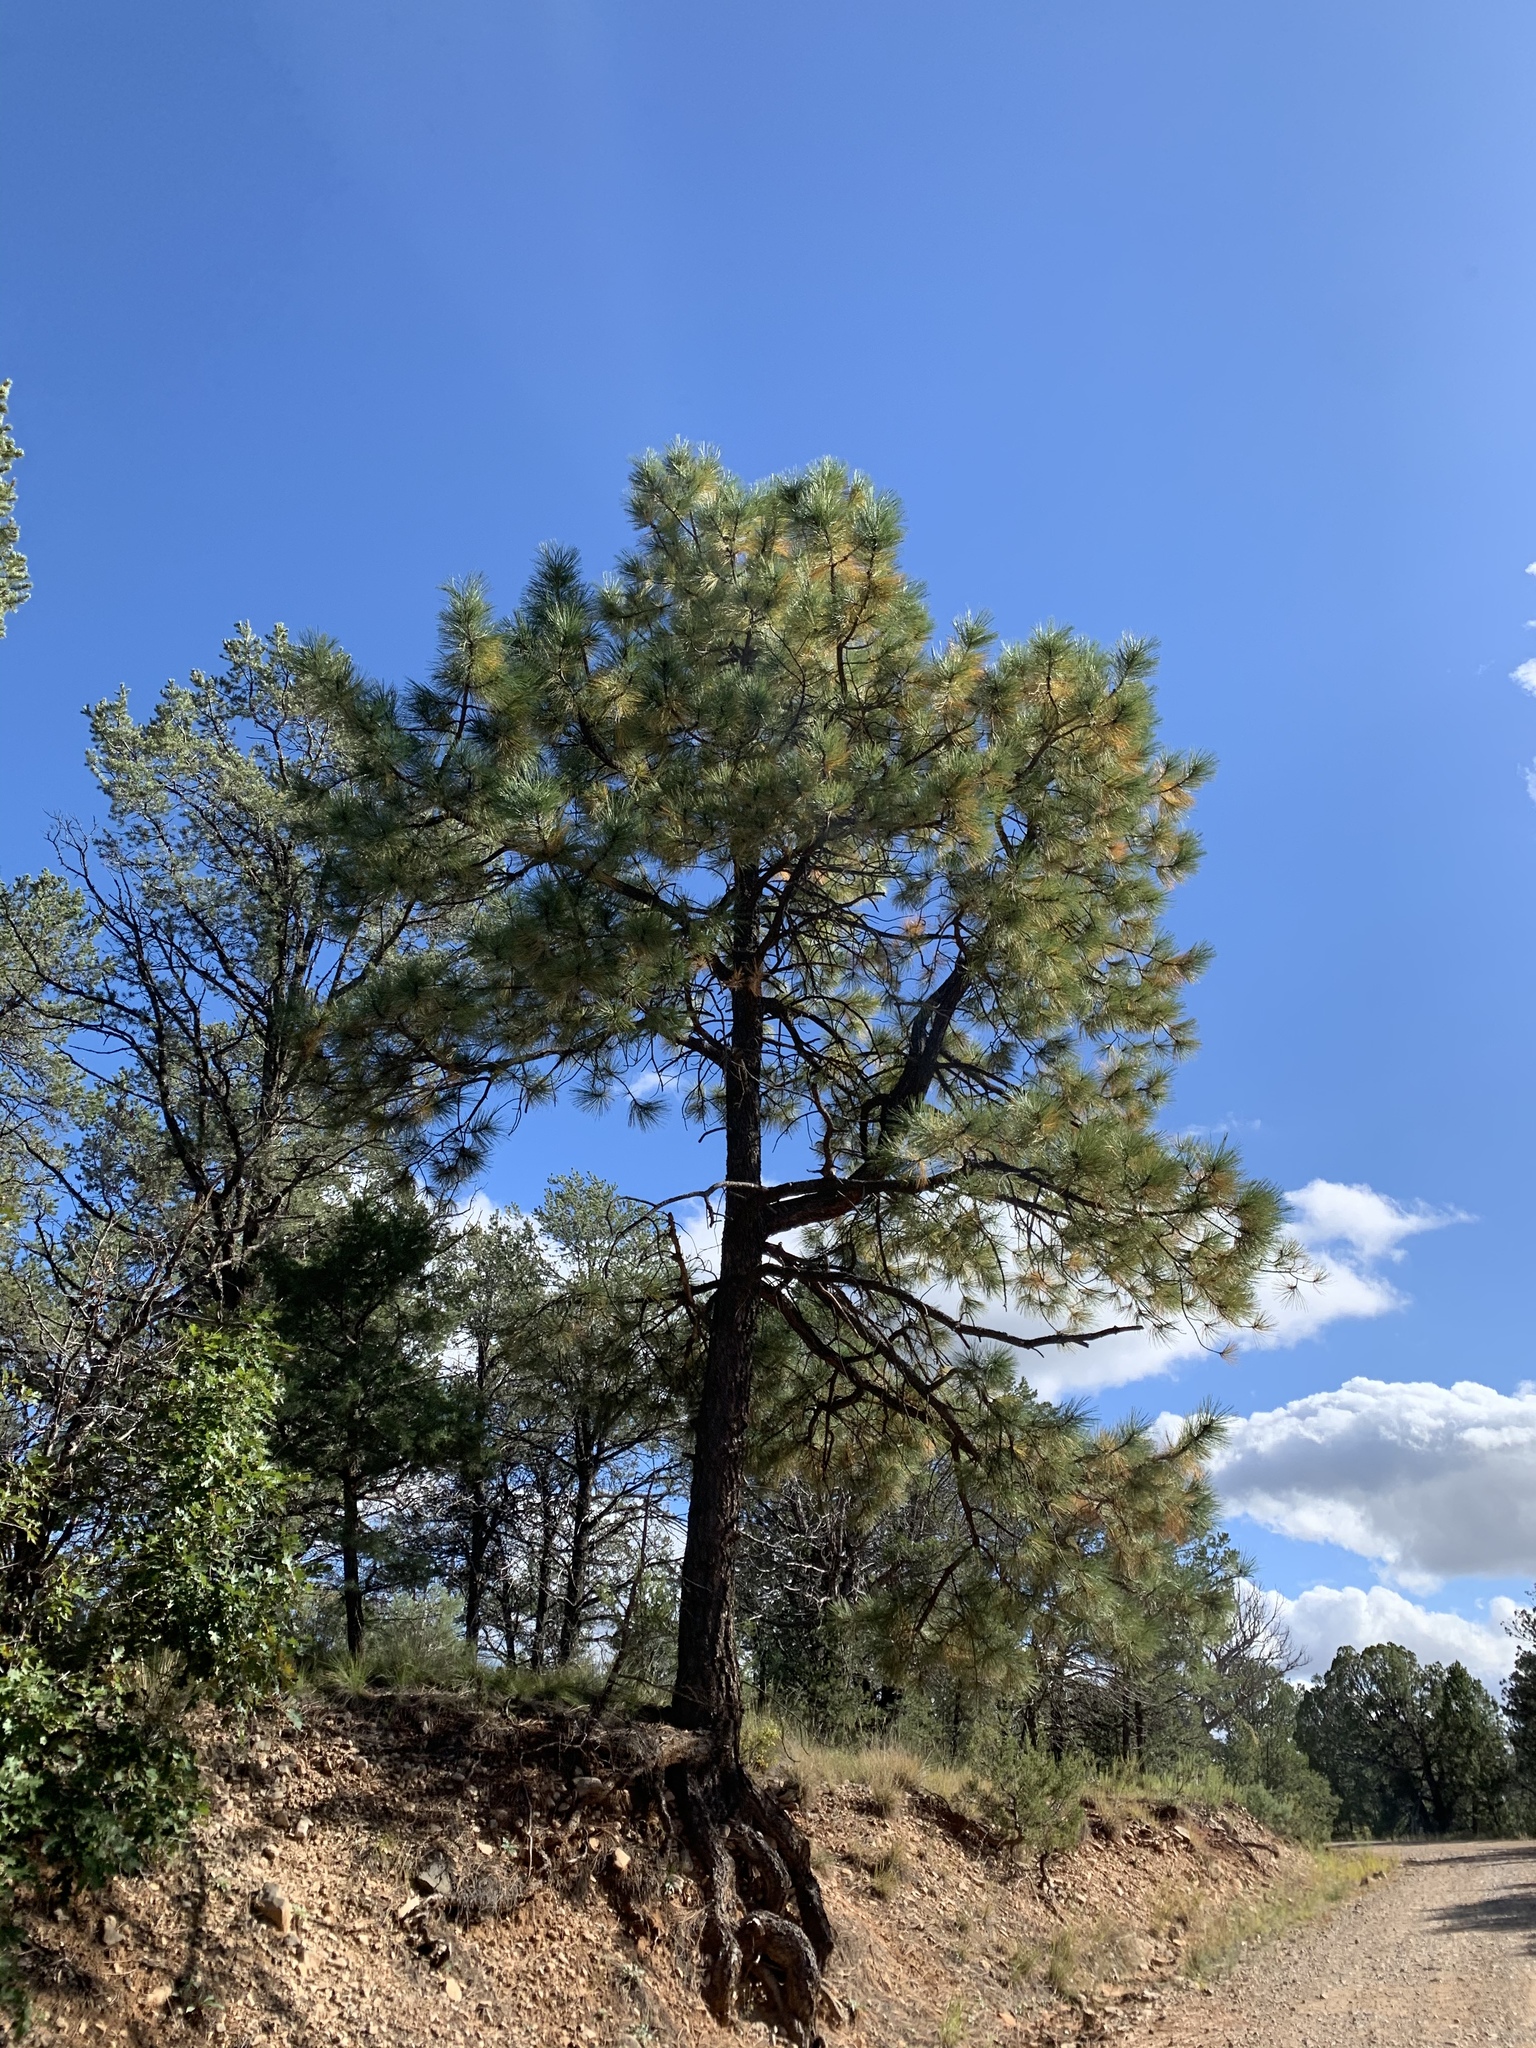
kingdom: Plantae
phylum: Tracheophyta
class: Pinopsida
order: Pinales
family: Pinaceae
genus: Pinus
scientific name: Pinus ponderosa
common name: Western yellow-pine
